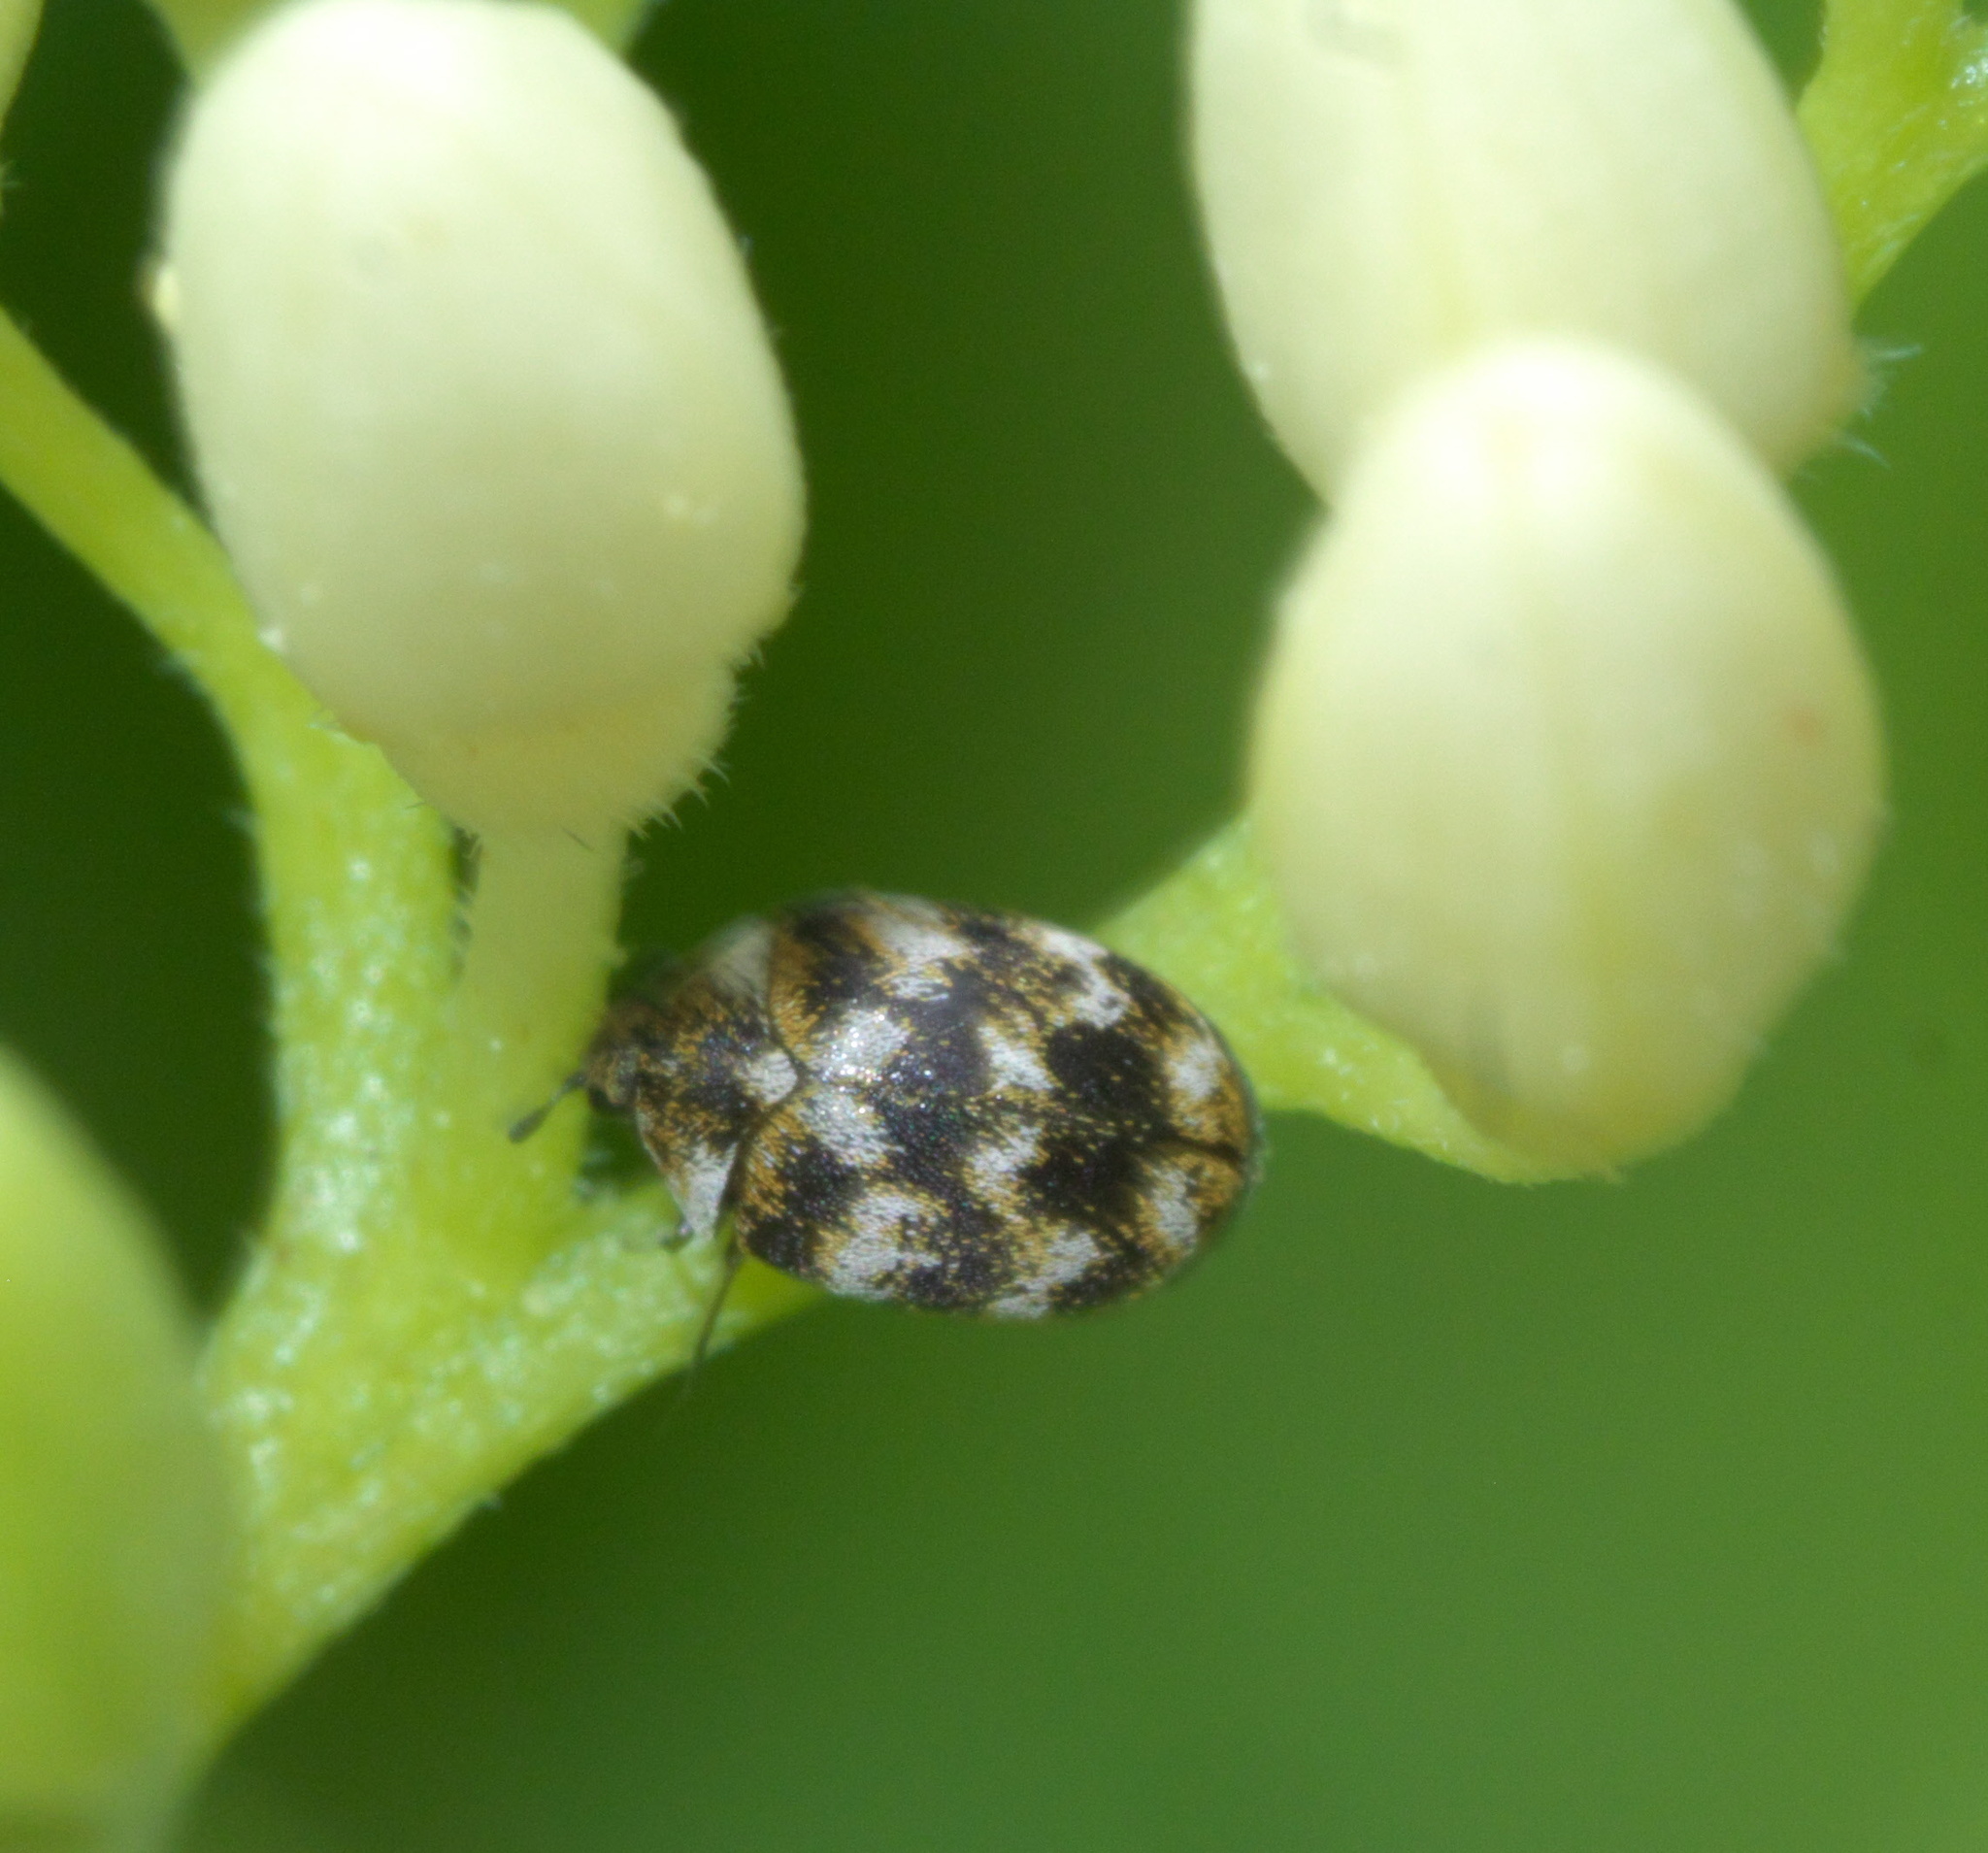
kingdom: Animalia
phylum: Arthropoda
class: Insecta
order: Coleoptera
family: Dermestidae
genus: Anthrenus
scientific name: Anthrenus verbasci
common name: Varied carpet beetle
